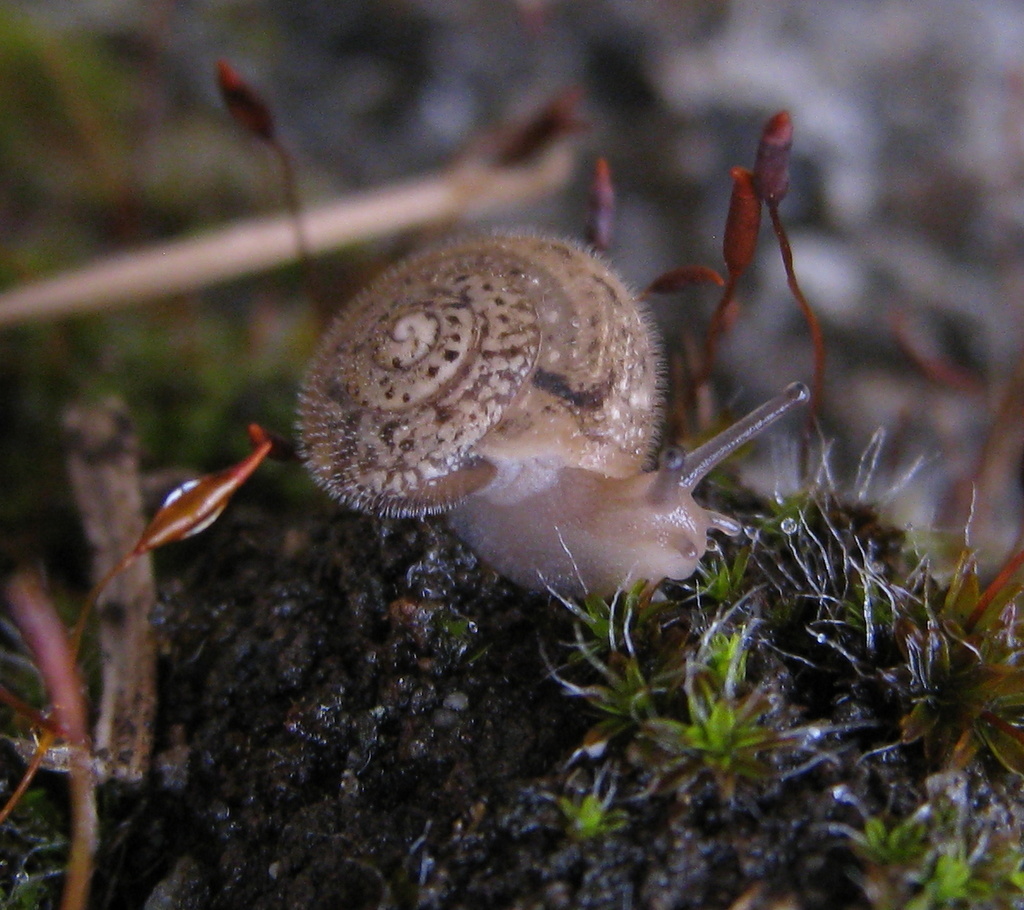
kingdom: Animalia
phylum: Mollusca
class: Gastropoda
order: Stylommatophora
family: Hygromiidae
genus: Ganula
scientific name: Ganula lanuginosa
